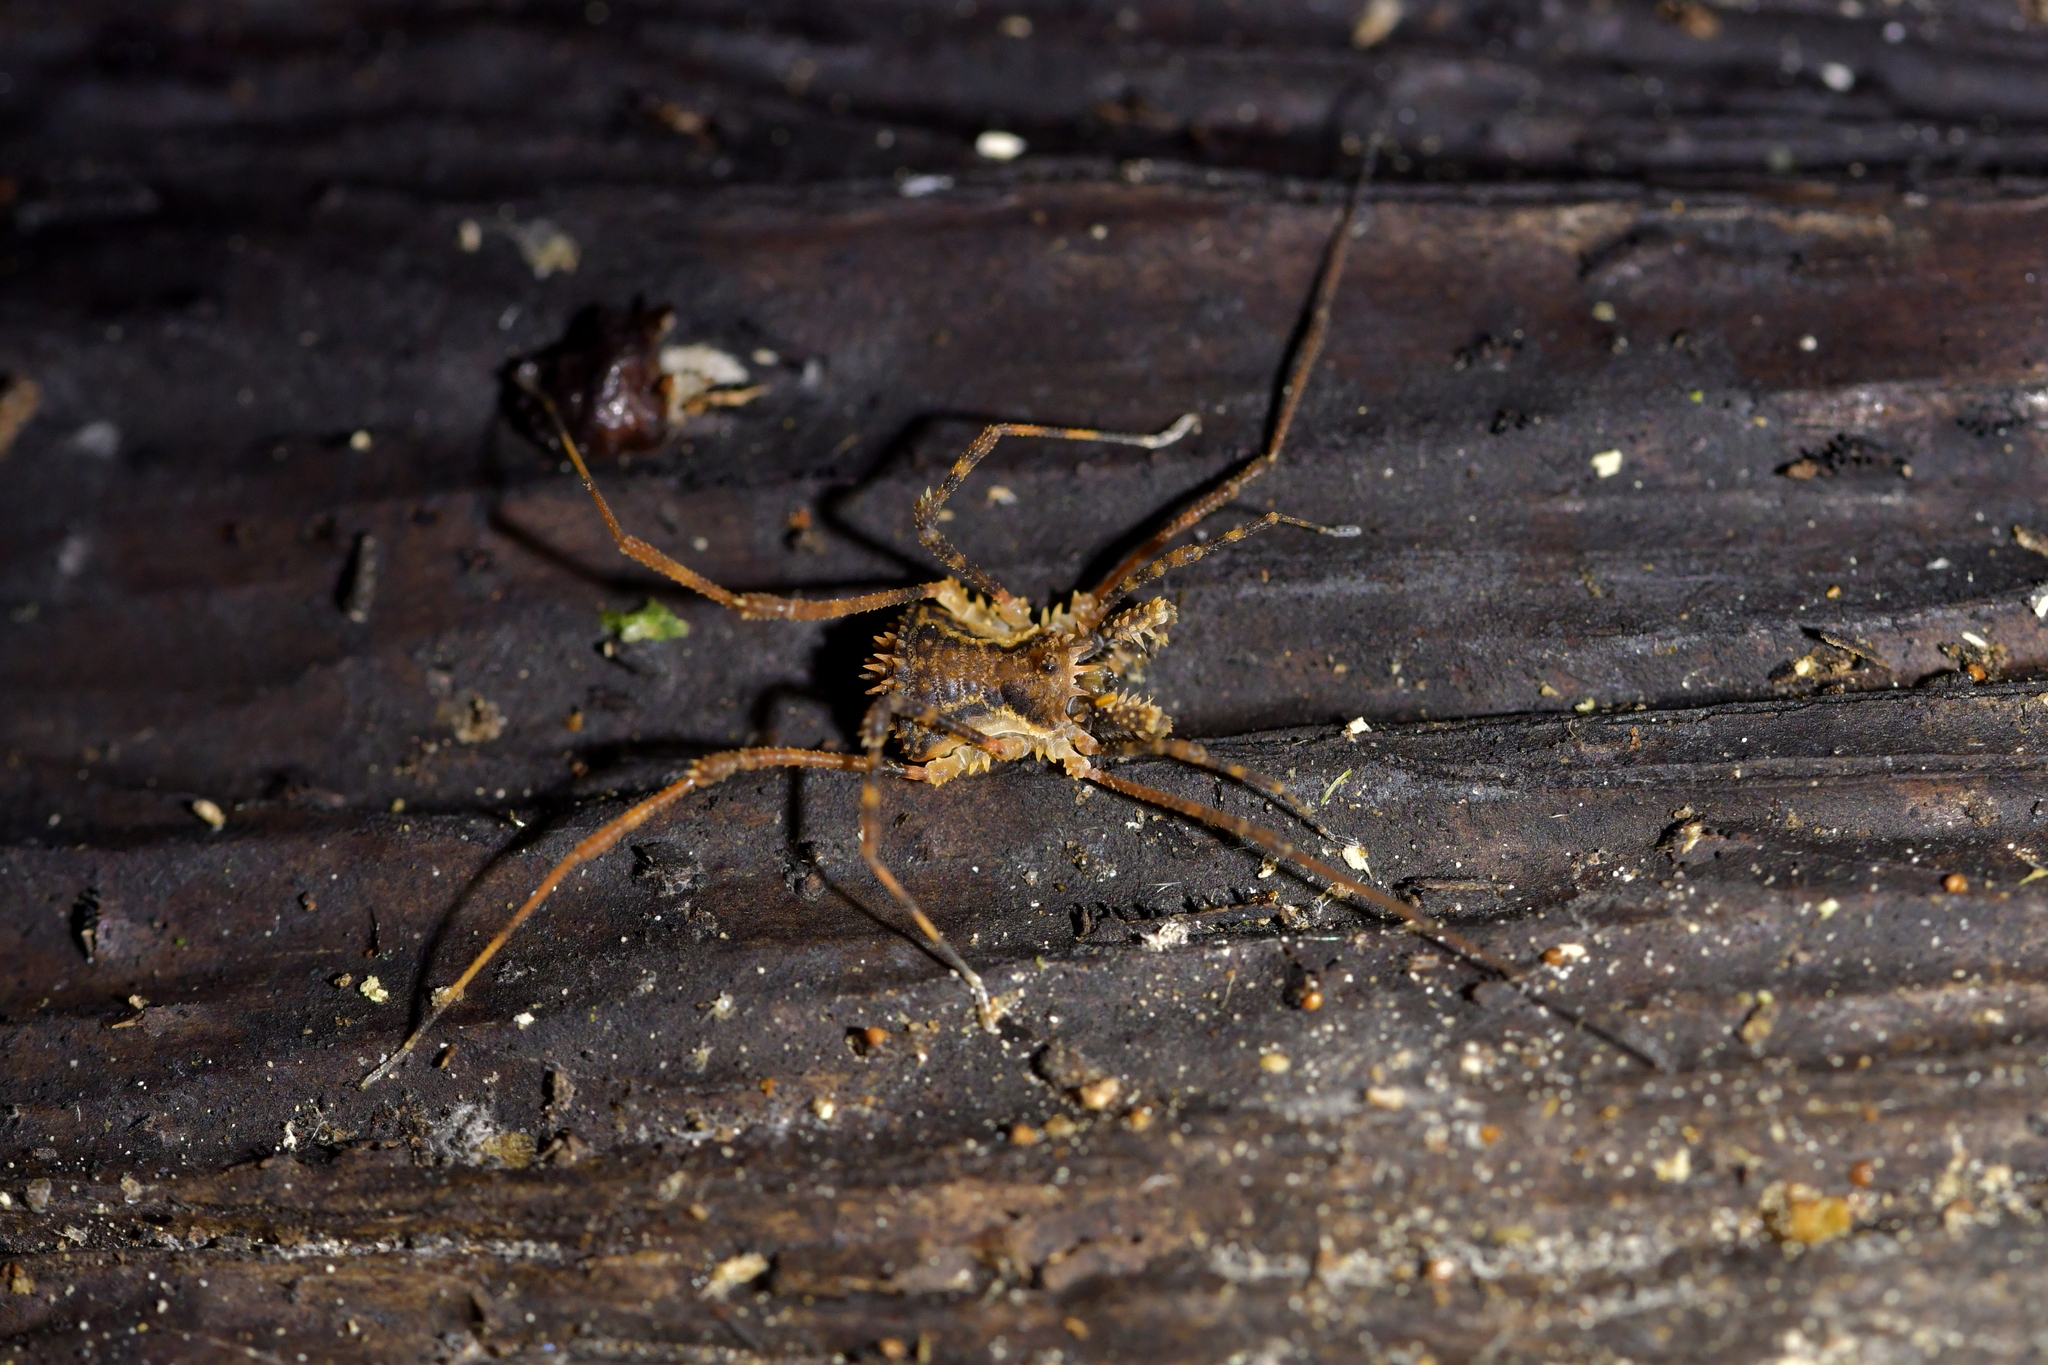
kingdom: Animalia
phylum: Arthropoda
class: Arachnida
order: Opiliones
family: Triaenonychidae
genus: Algidia
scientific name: Algidia nigriflava
